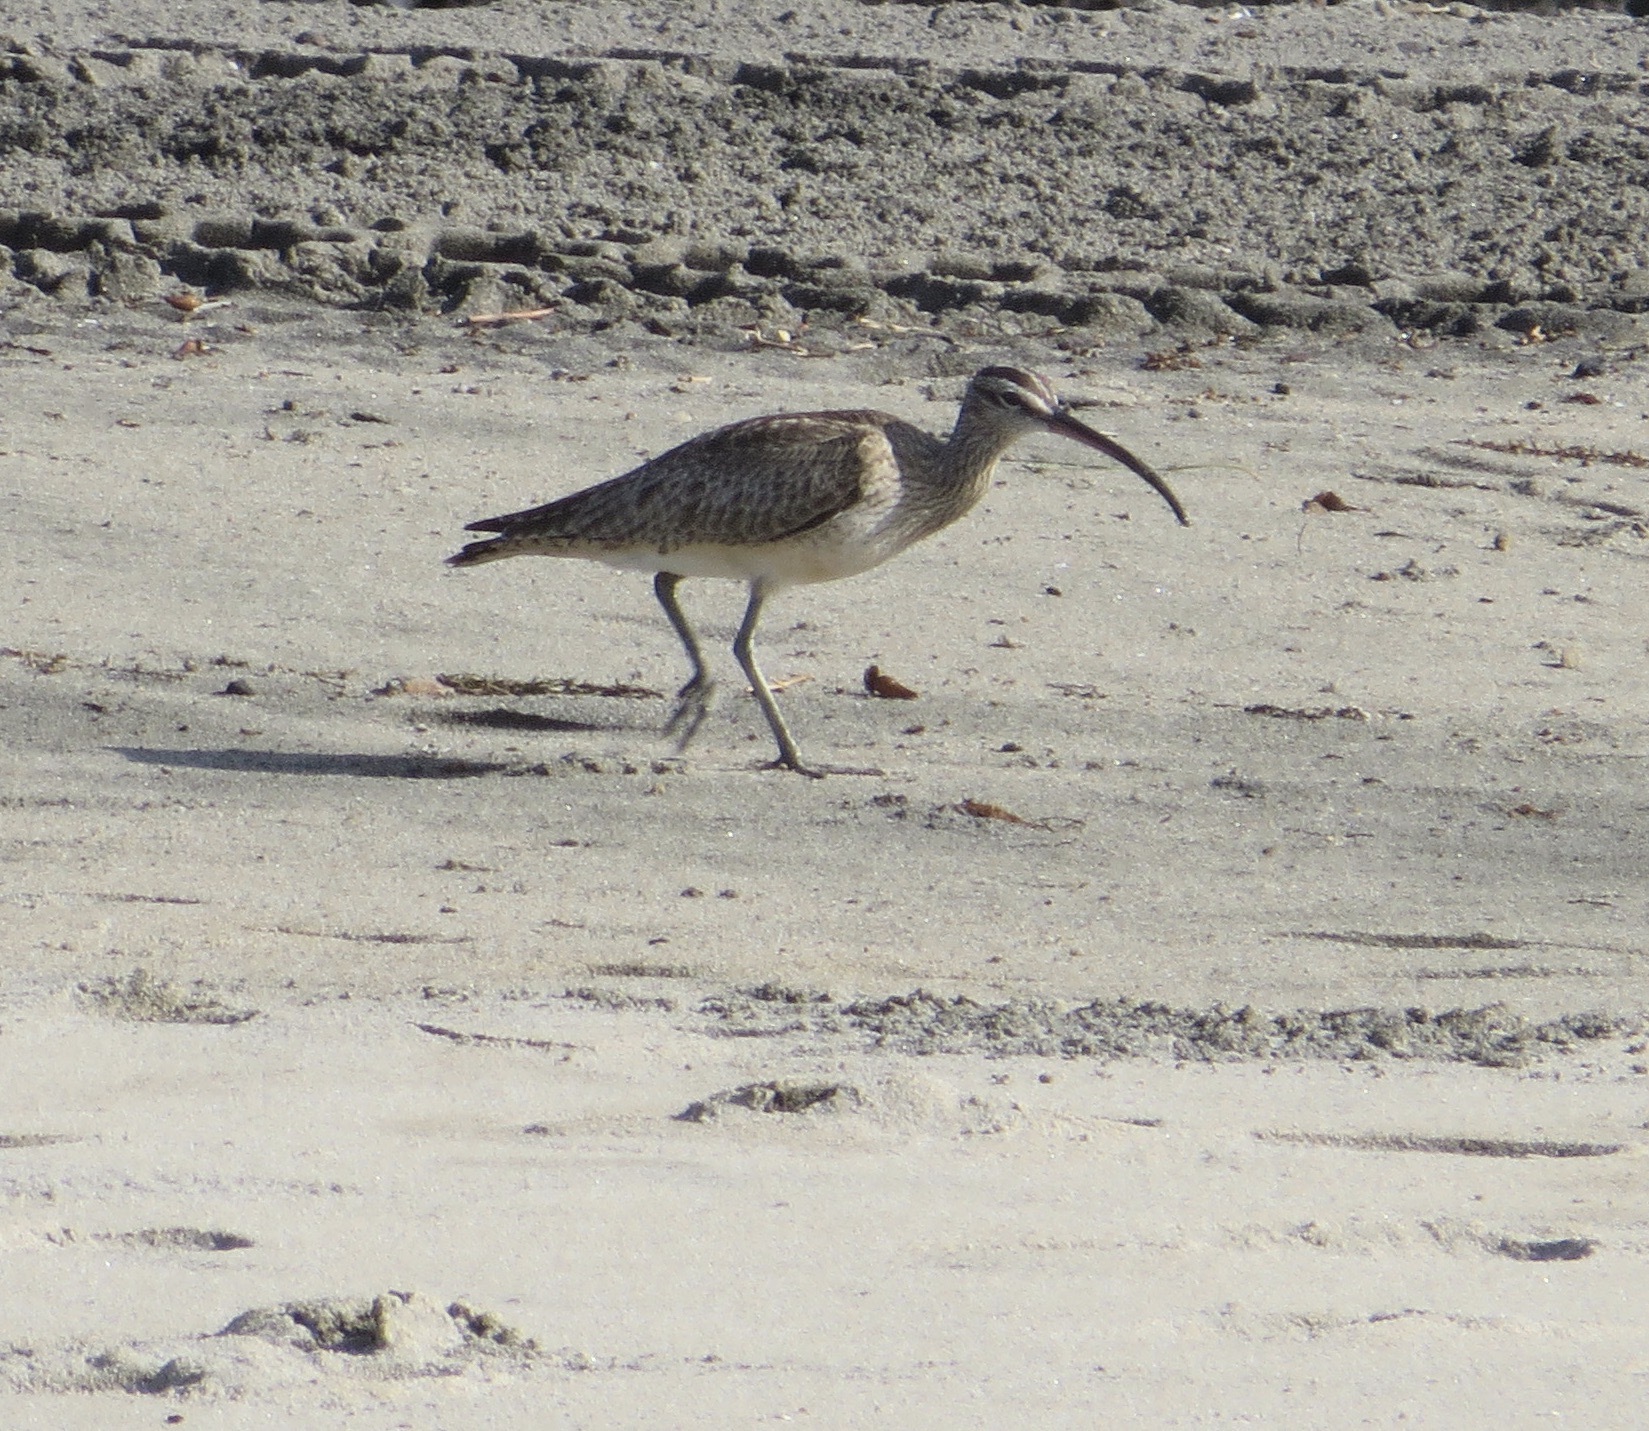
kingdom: Animalia
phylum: Chordata
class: Aves
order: Charadriiformes
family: Scolopacidae
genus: Numenius
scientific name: Numenius phaeopus
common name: Whimbrel
